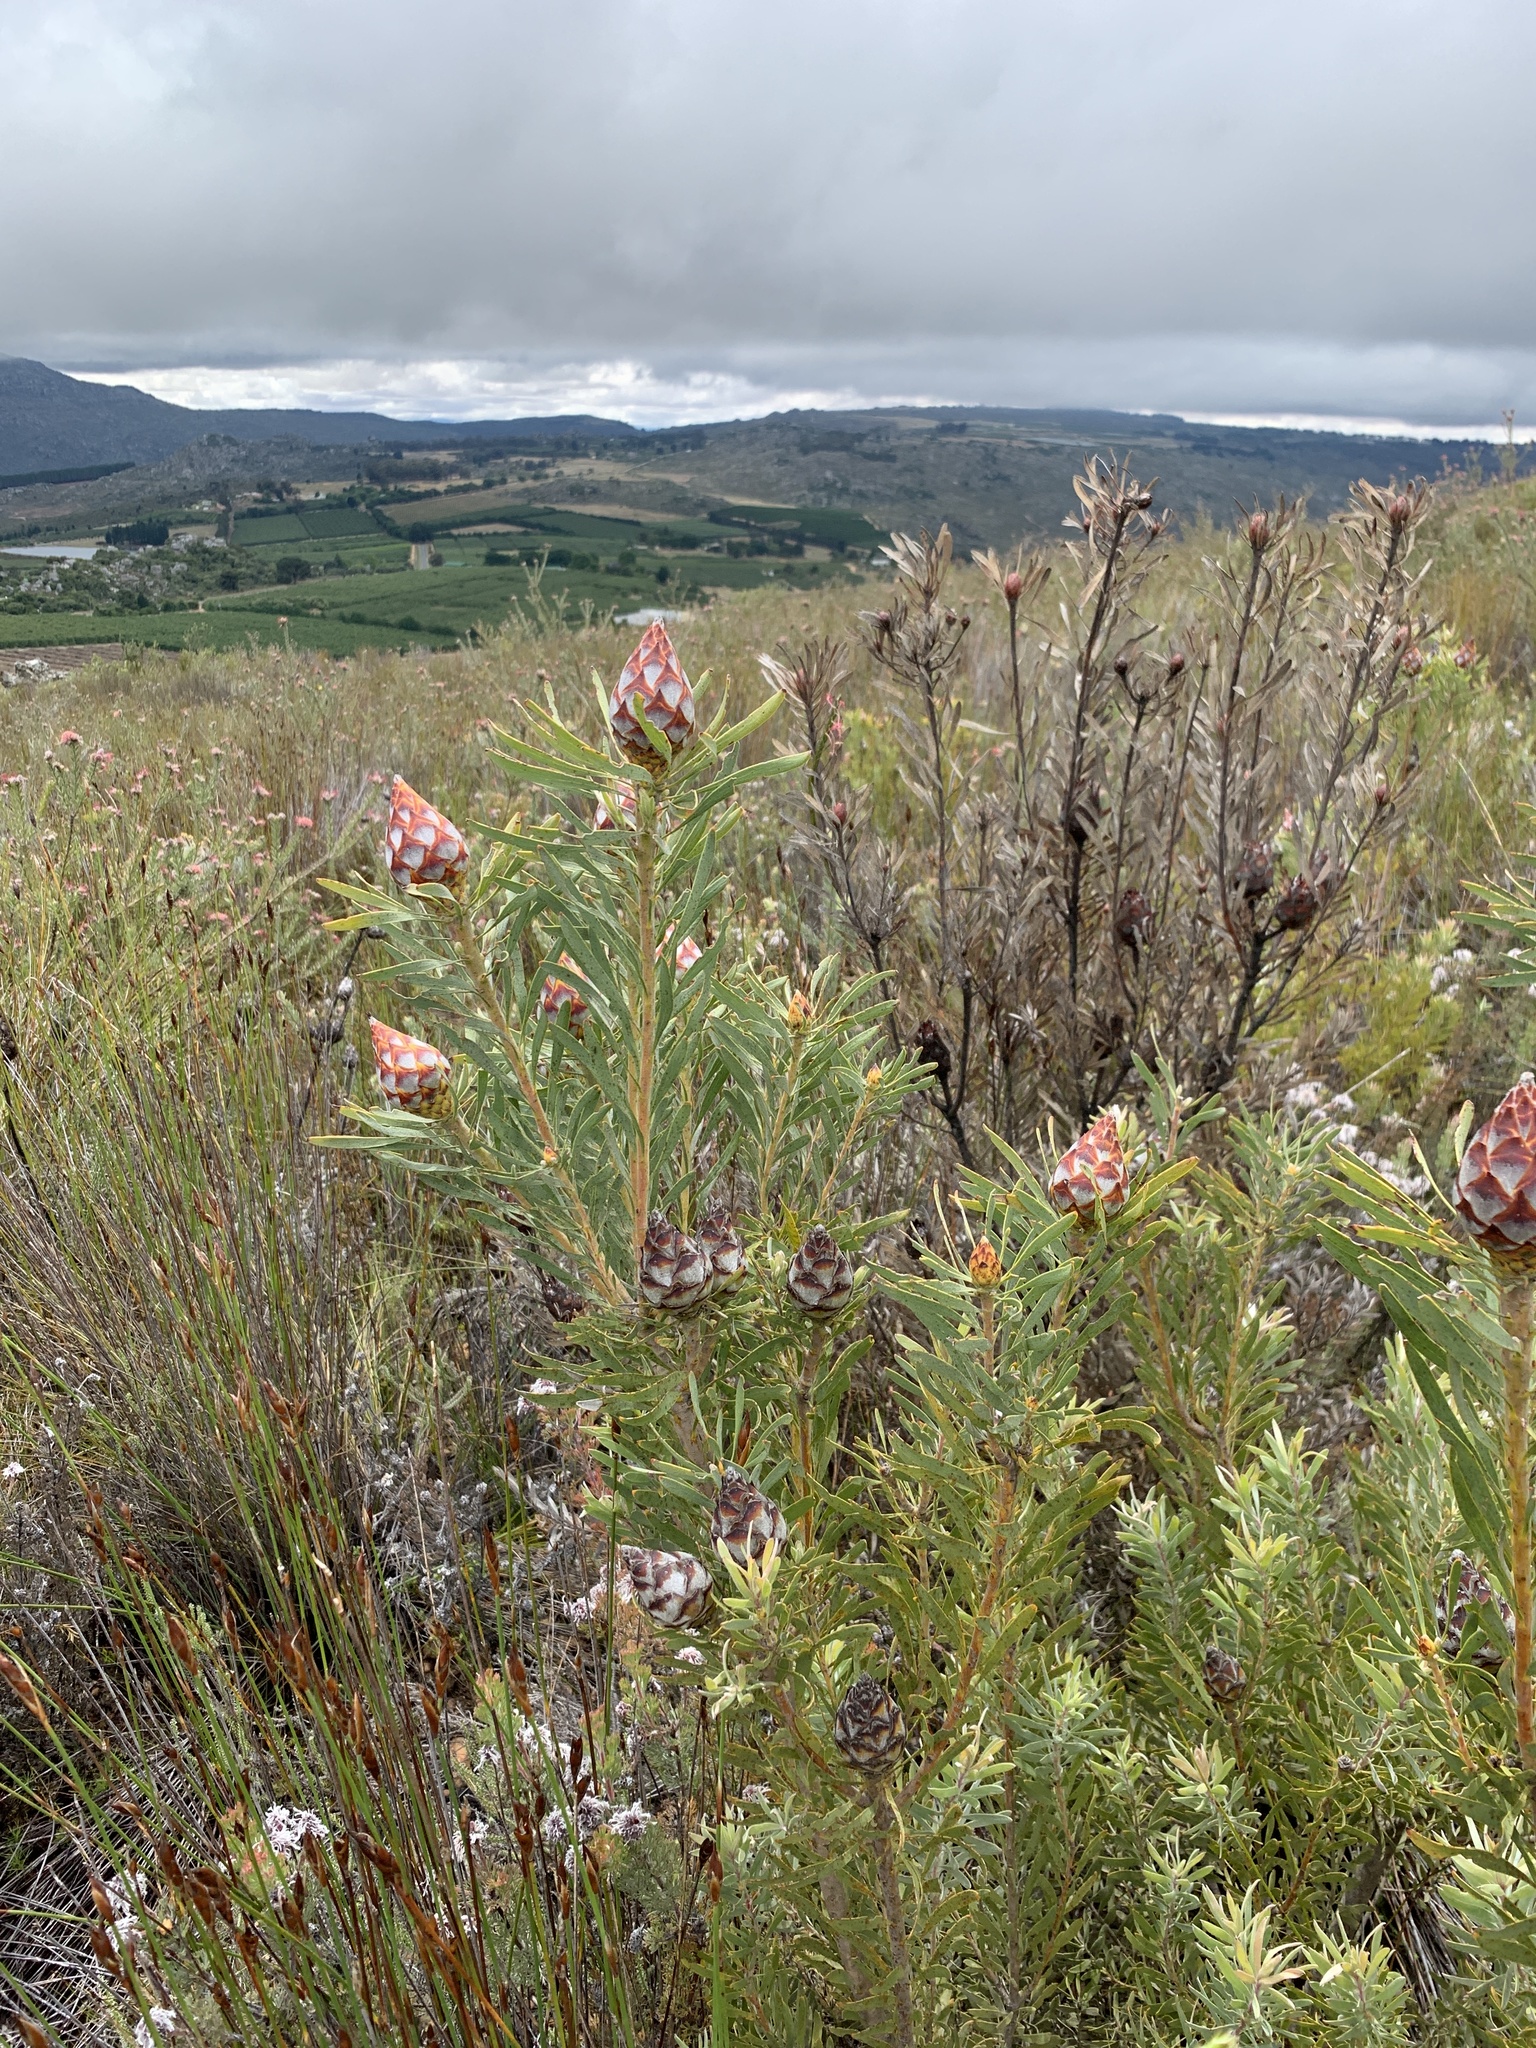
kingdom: Plantae
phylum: Tracheophyta
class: Magnoliopsida
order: Proteales
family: Proteaceae
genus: Leucadendron
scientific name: Leucadendron rubrum
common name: Spinning top
